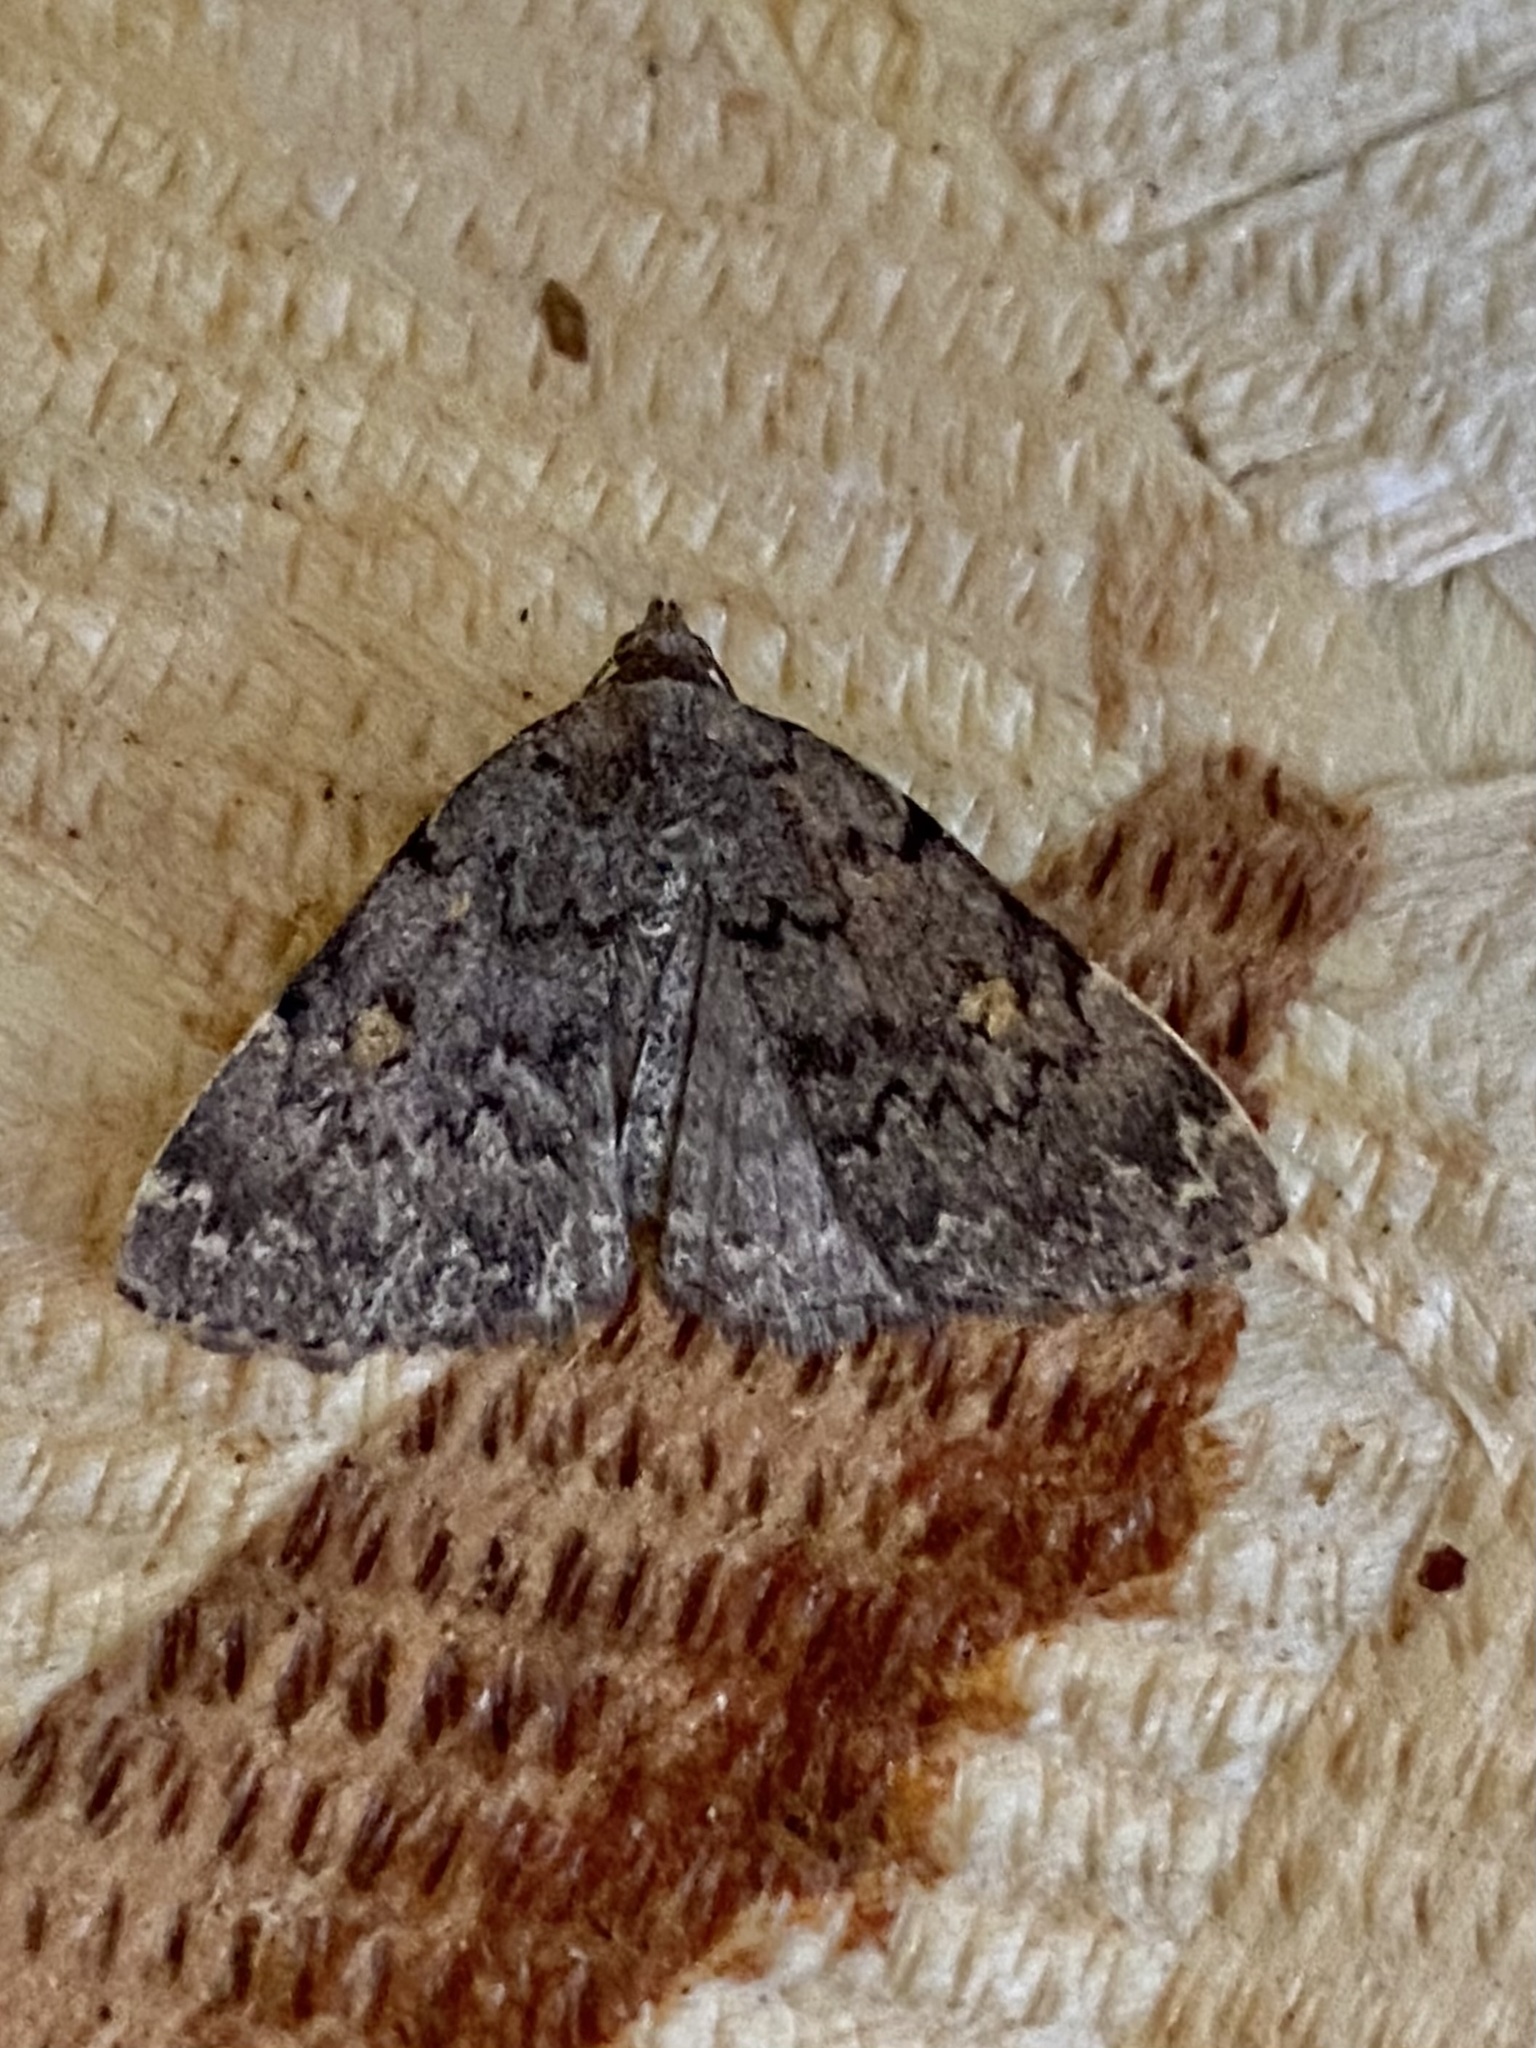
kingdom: Animalia
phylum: Arthropoda
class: Insecta
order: Lepidoptera
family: Erebidae
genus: Idia
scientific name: Idia aemula
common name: Common idia moth
